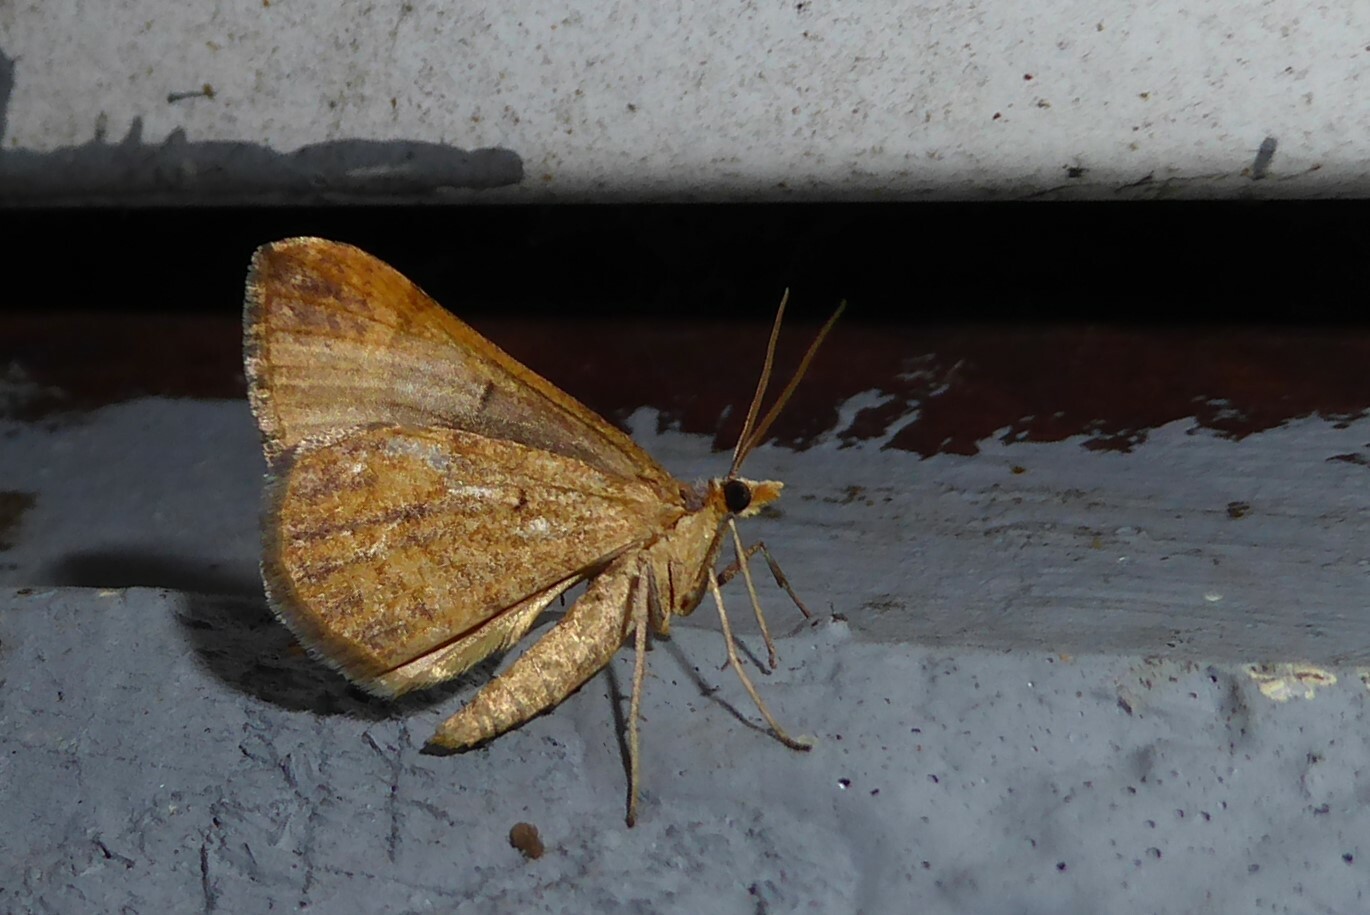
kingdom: Animalia
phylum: Arthropoda
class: Insecta
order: Lepidoptera
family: Geometridae
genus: Anachloris
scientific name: Anachloris subochraria
